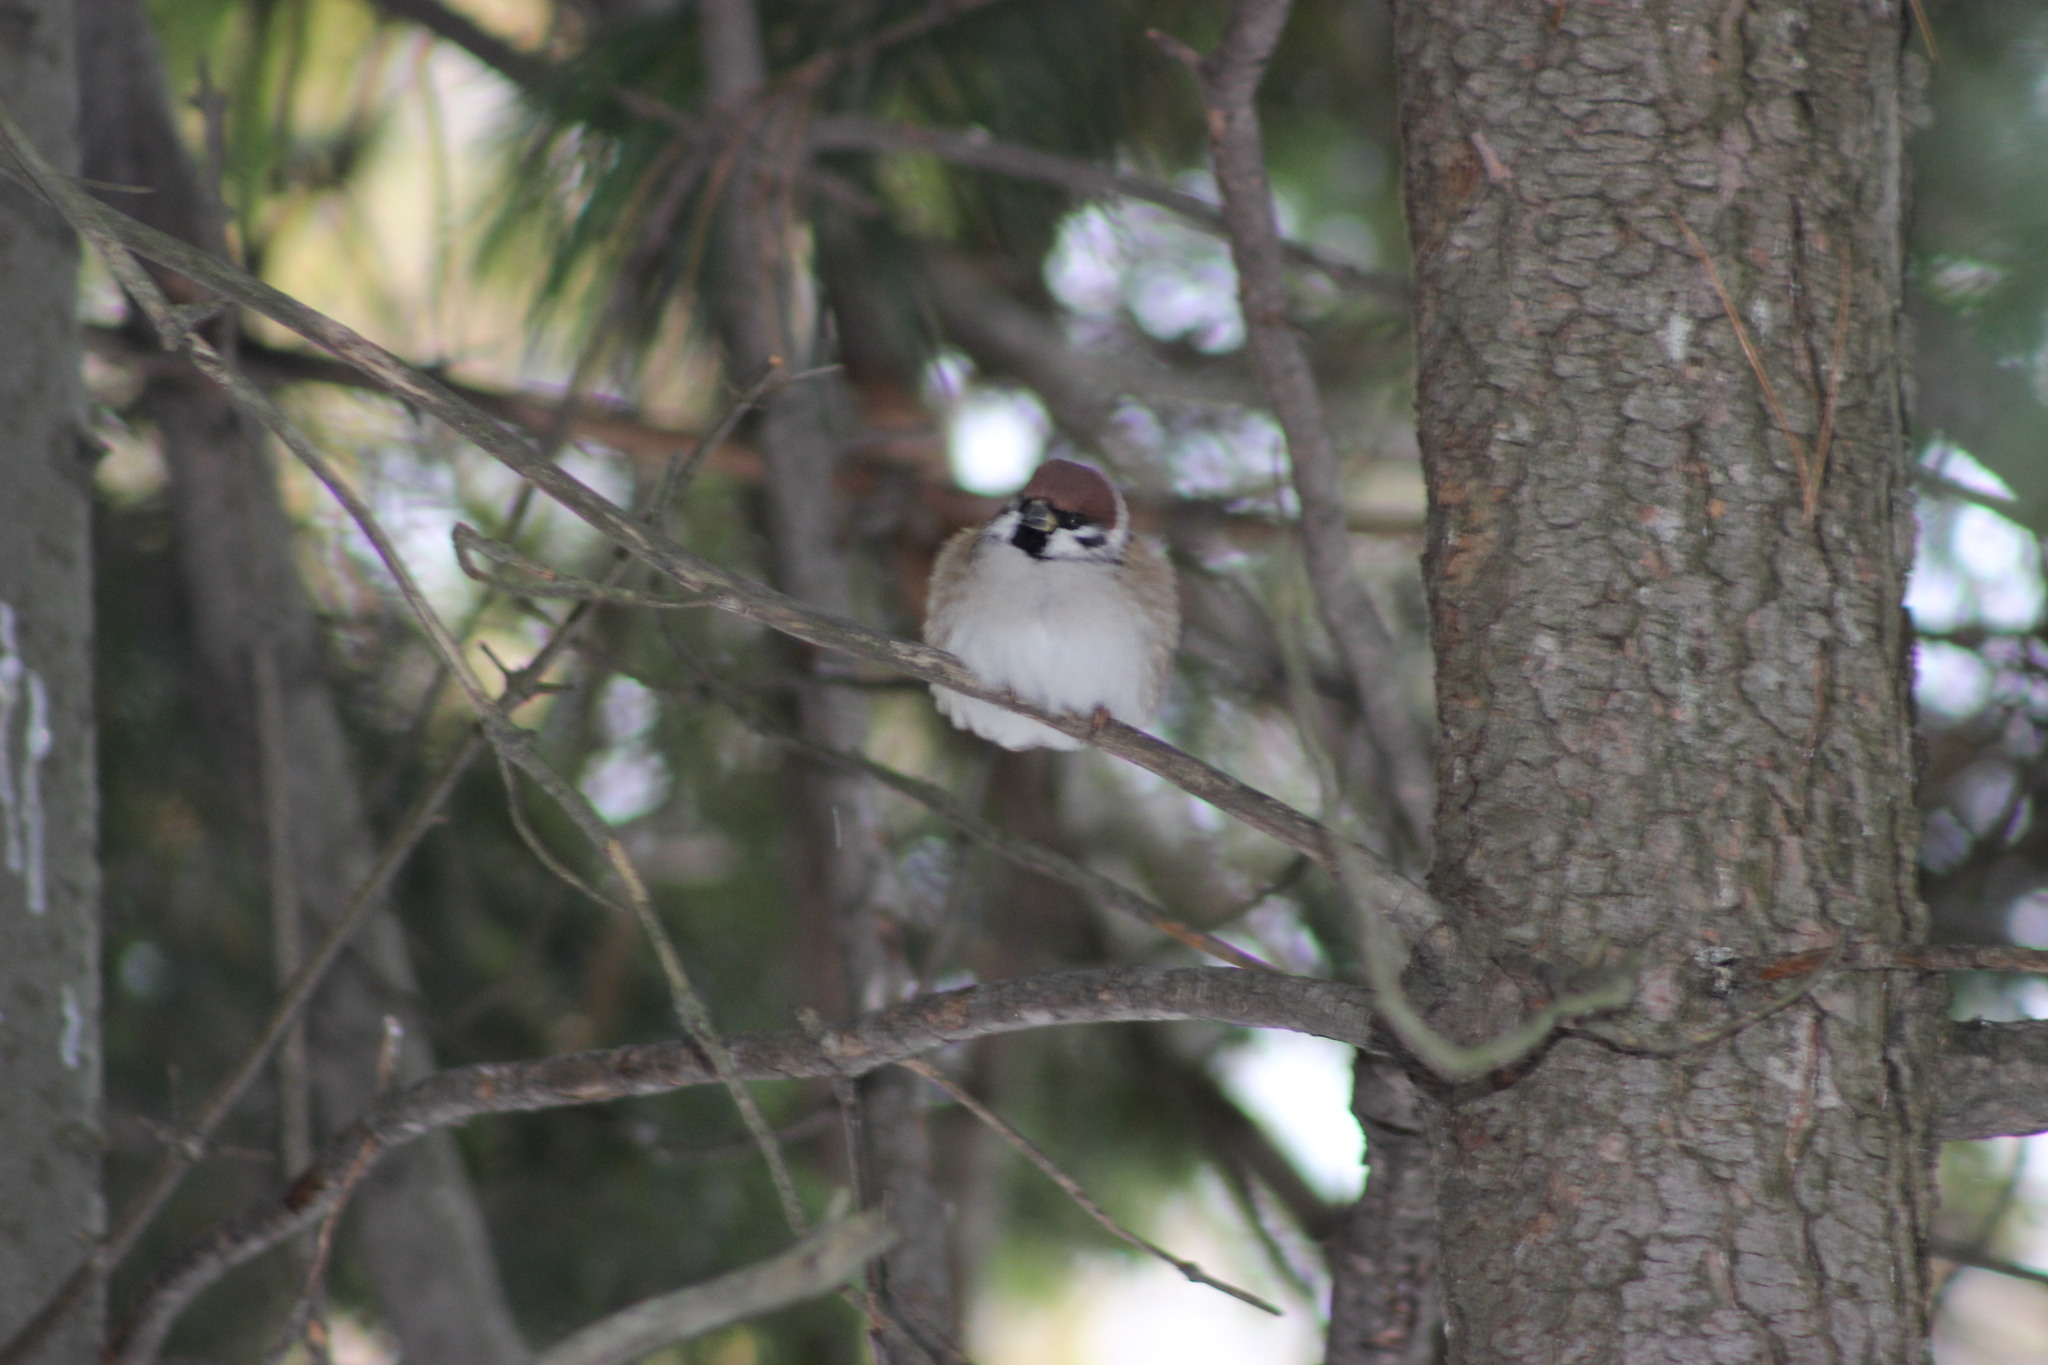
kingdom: Animalia
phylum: Chordata
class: Aves
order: Passeriformes
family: Passeridae
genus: Passer
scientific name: Passer montanus
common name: Eurasian tree sparrow
